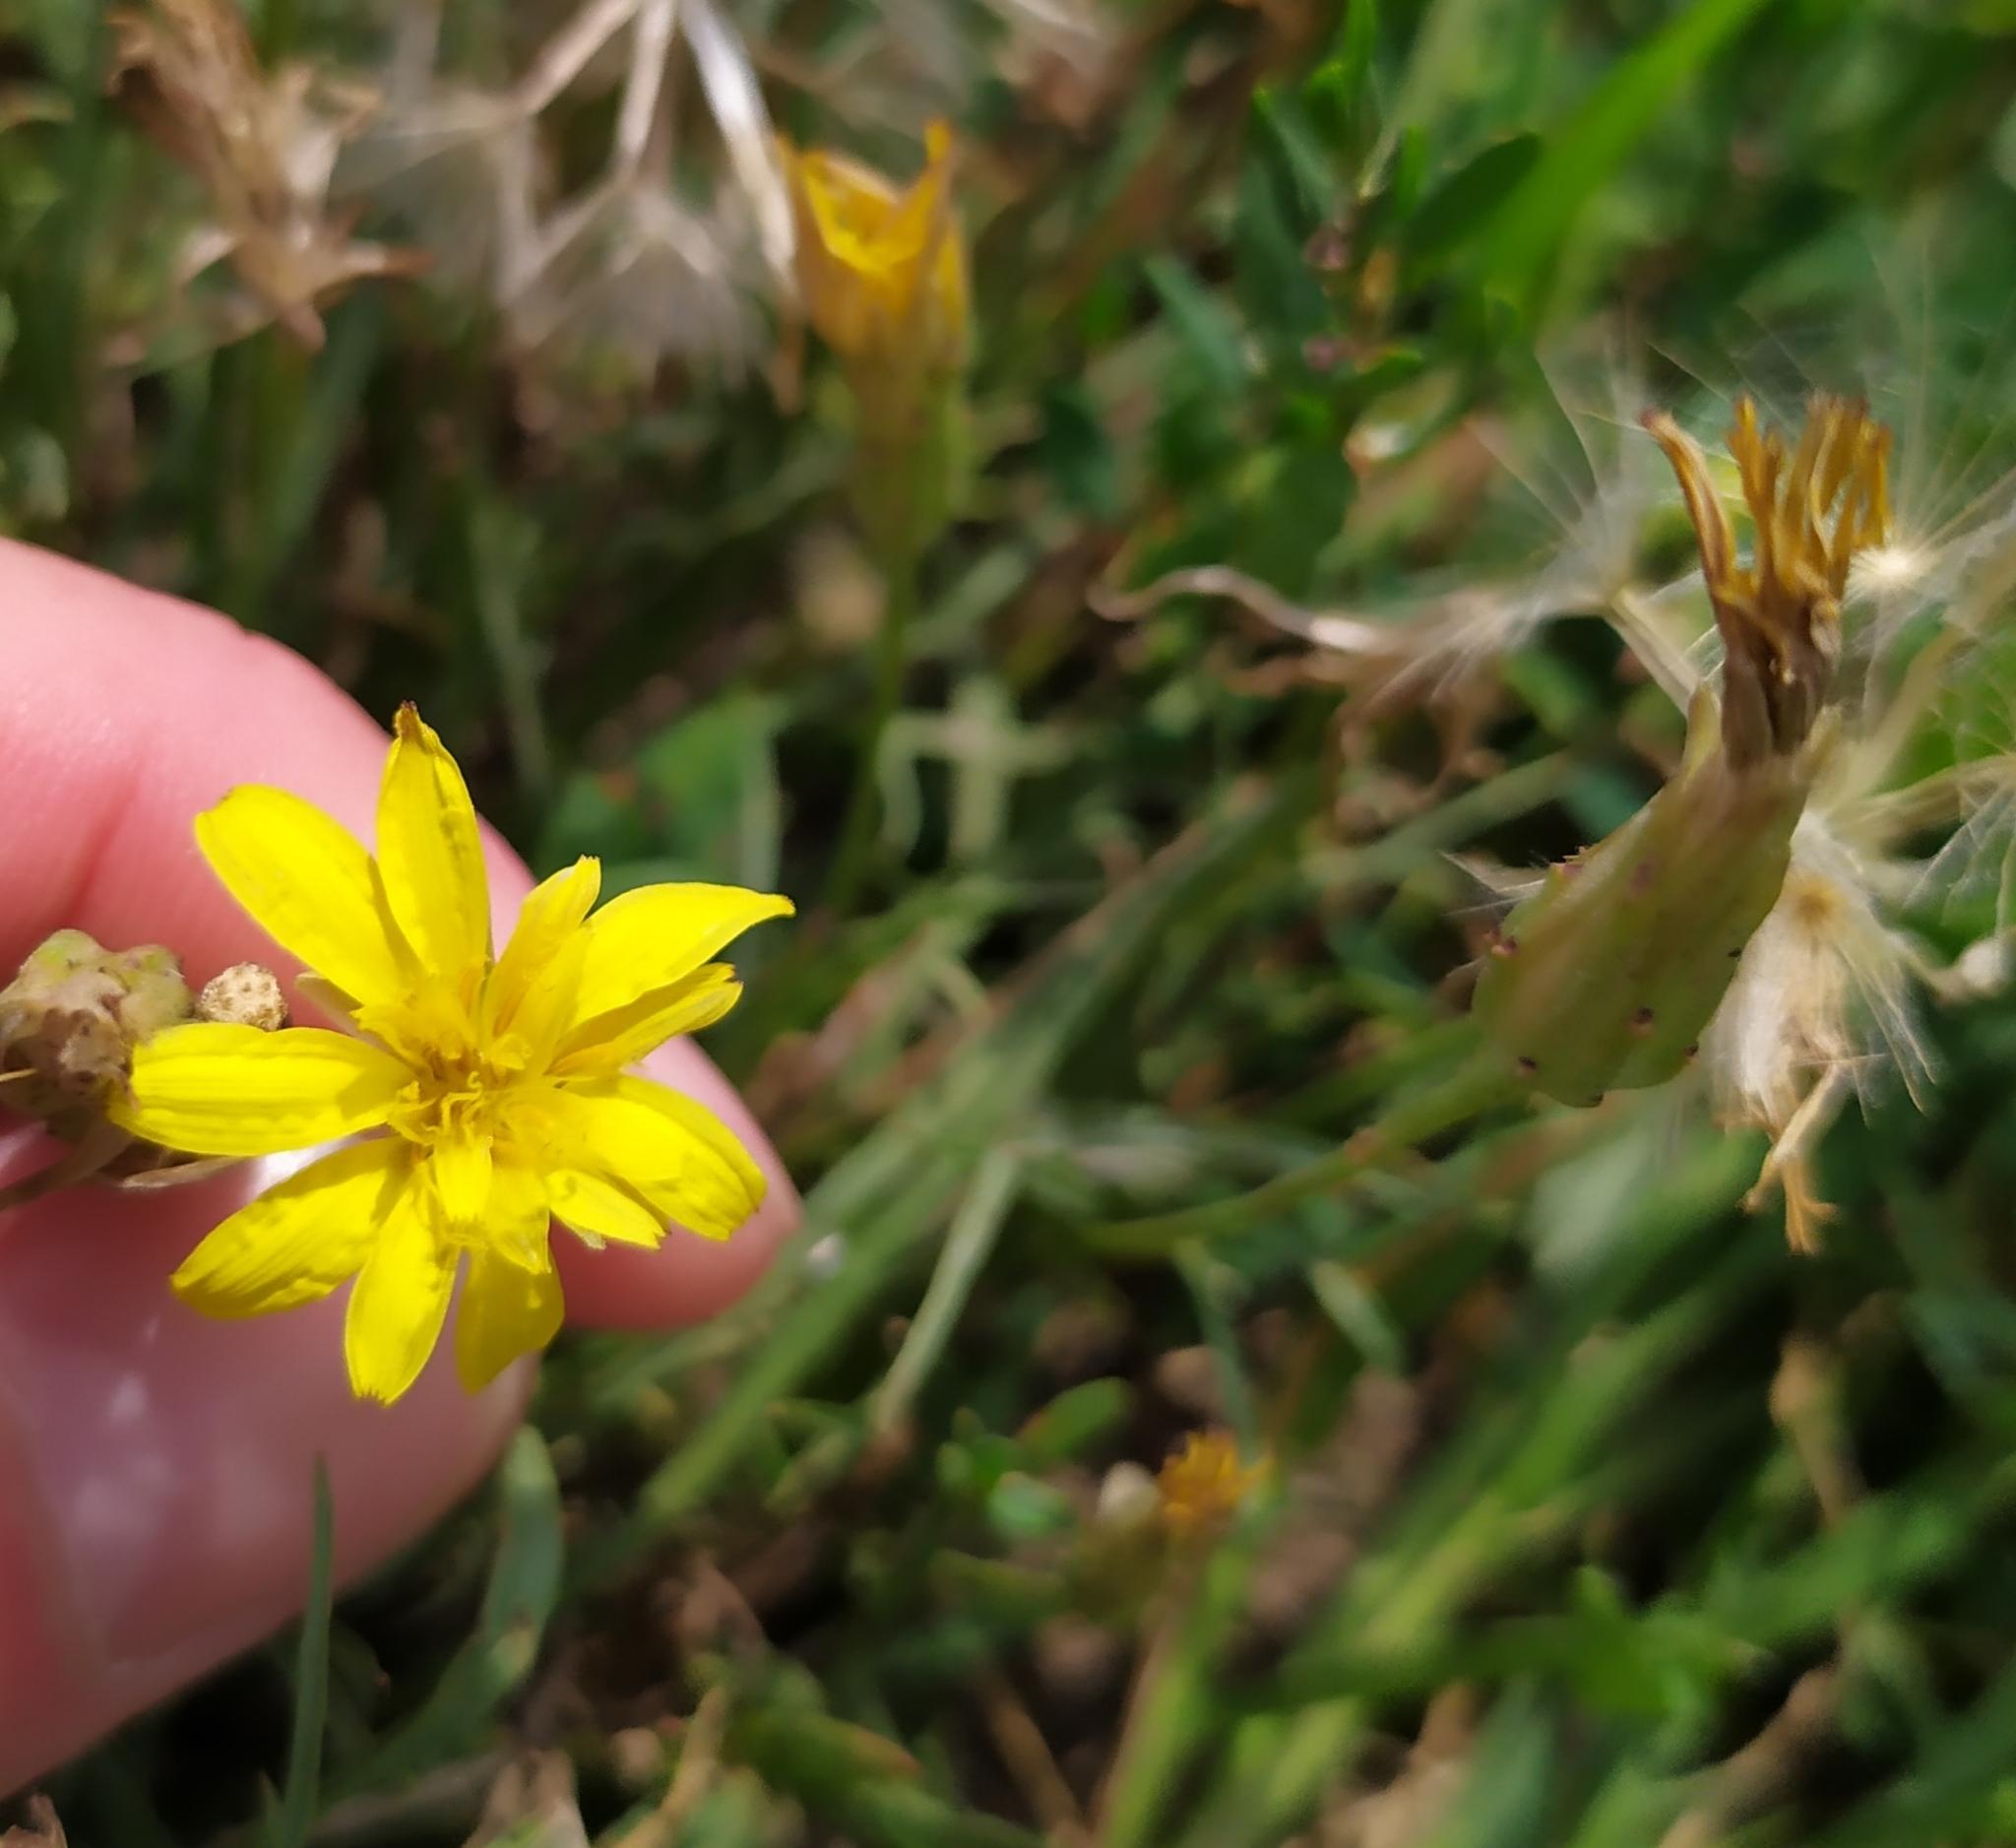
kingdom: Plantae
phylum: Tracheophyta
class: Magnoliopsida
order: Asterales
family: Asteraceae
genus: Scorzonera
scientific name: Scorzonera cana
